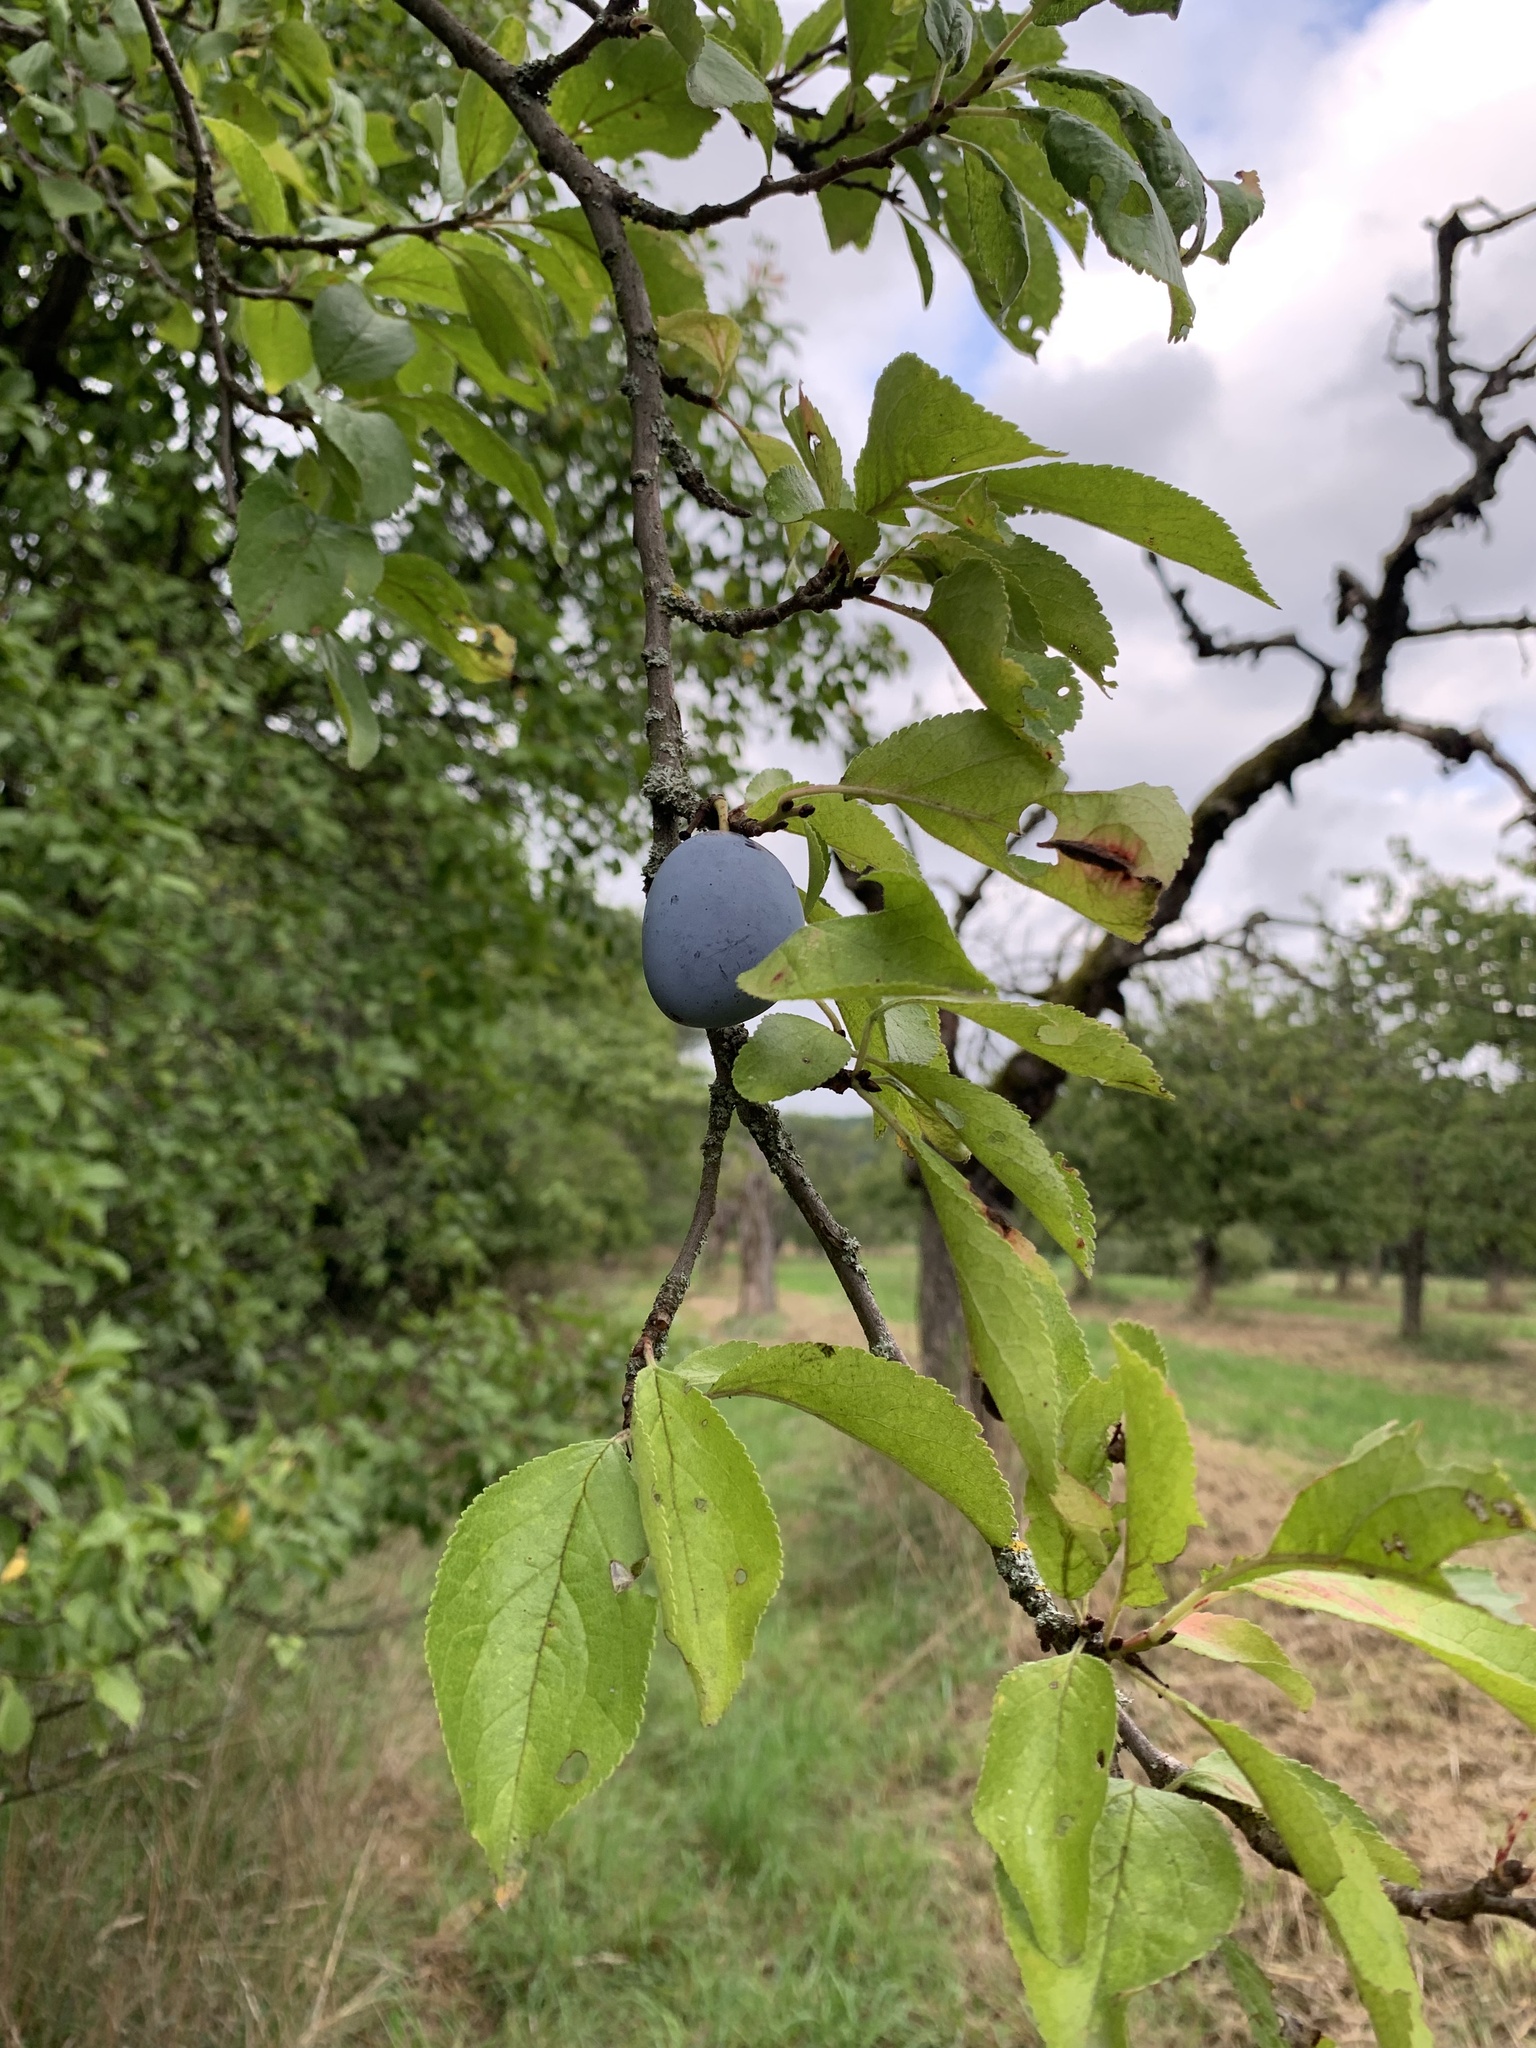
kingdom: Plantae
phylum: Tracheophyta
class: Magnoliopsida
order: Rosales
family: Rosaceae
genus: Prunus
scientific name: Prunus domestica
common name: Wild plum
